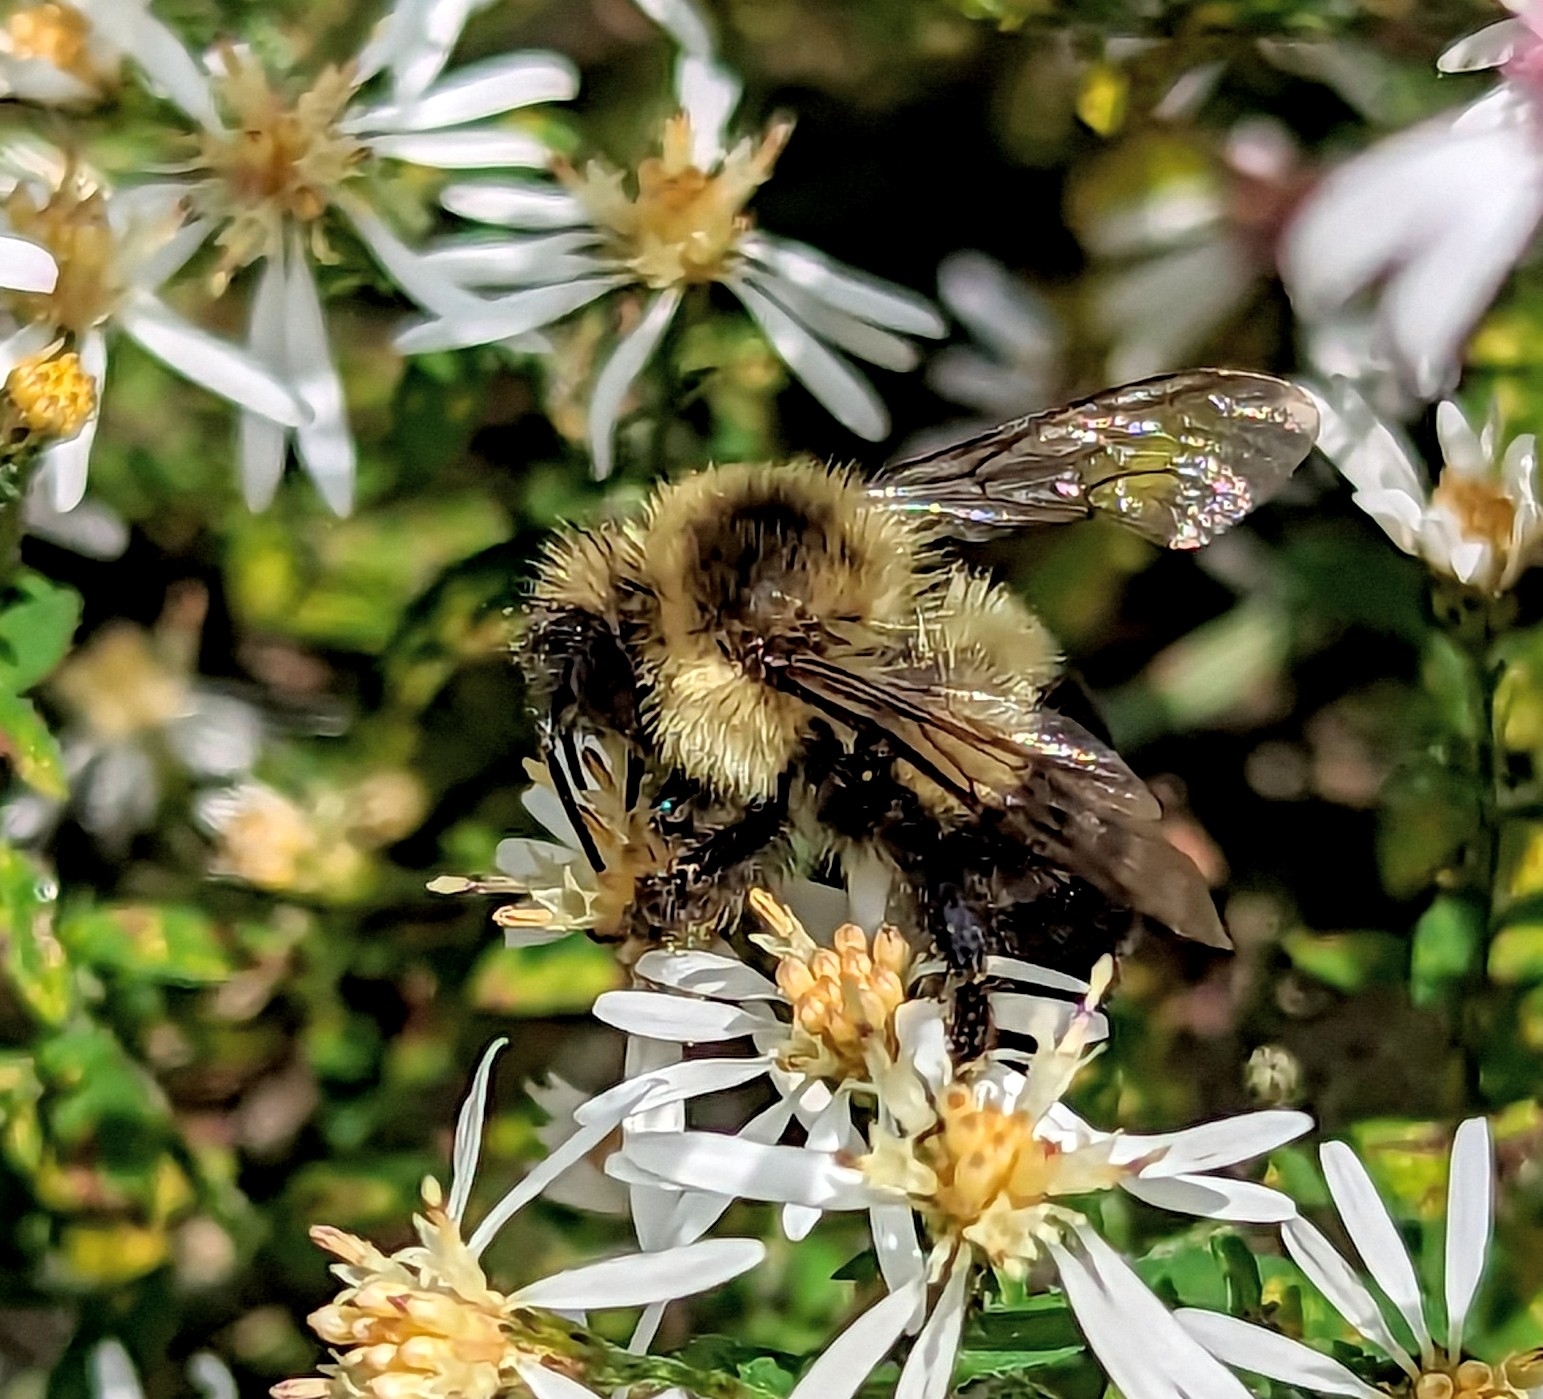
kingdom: Animalia
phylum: Arthropoda
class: Insecta
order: Hymenoptera
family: Apidae
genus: Bombus
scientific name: Bombus impatiens
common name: Common eastern bumble bee
